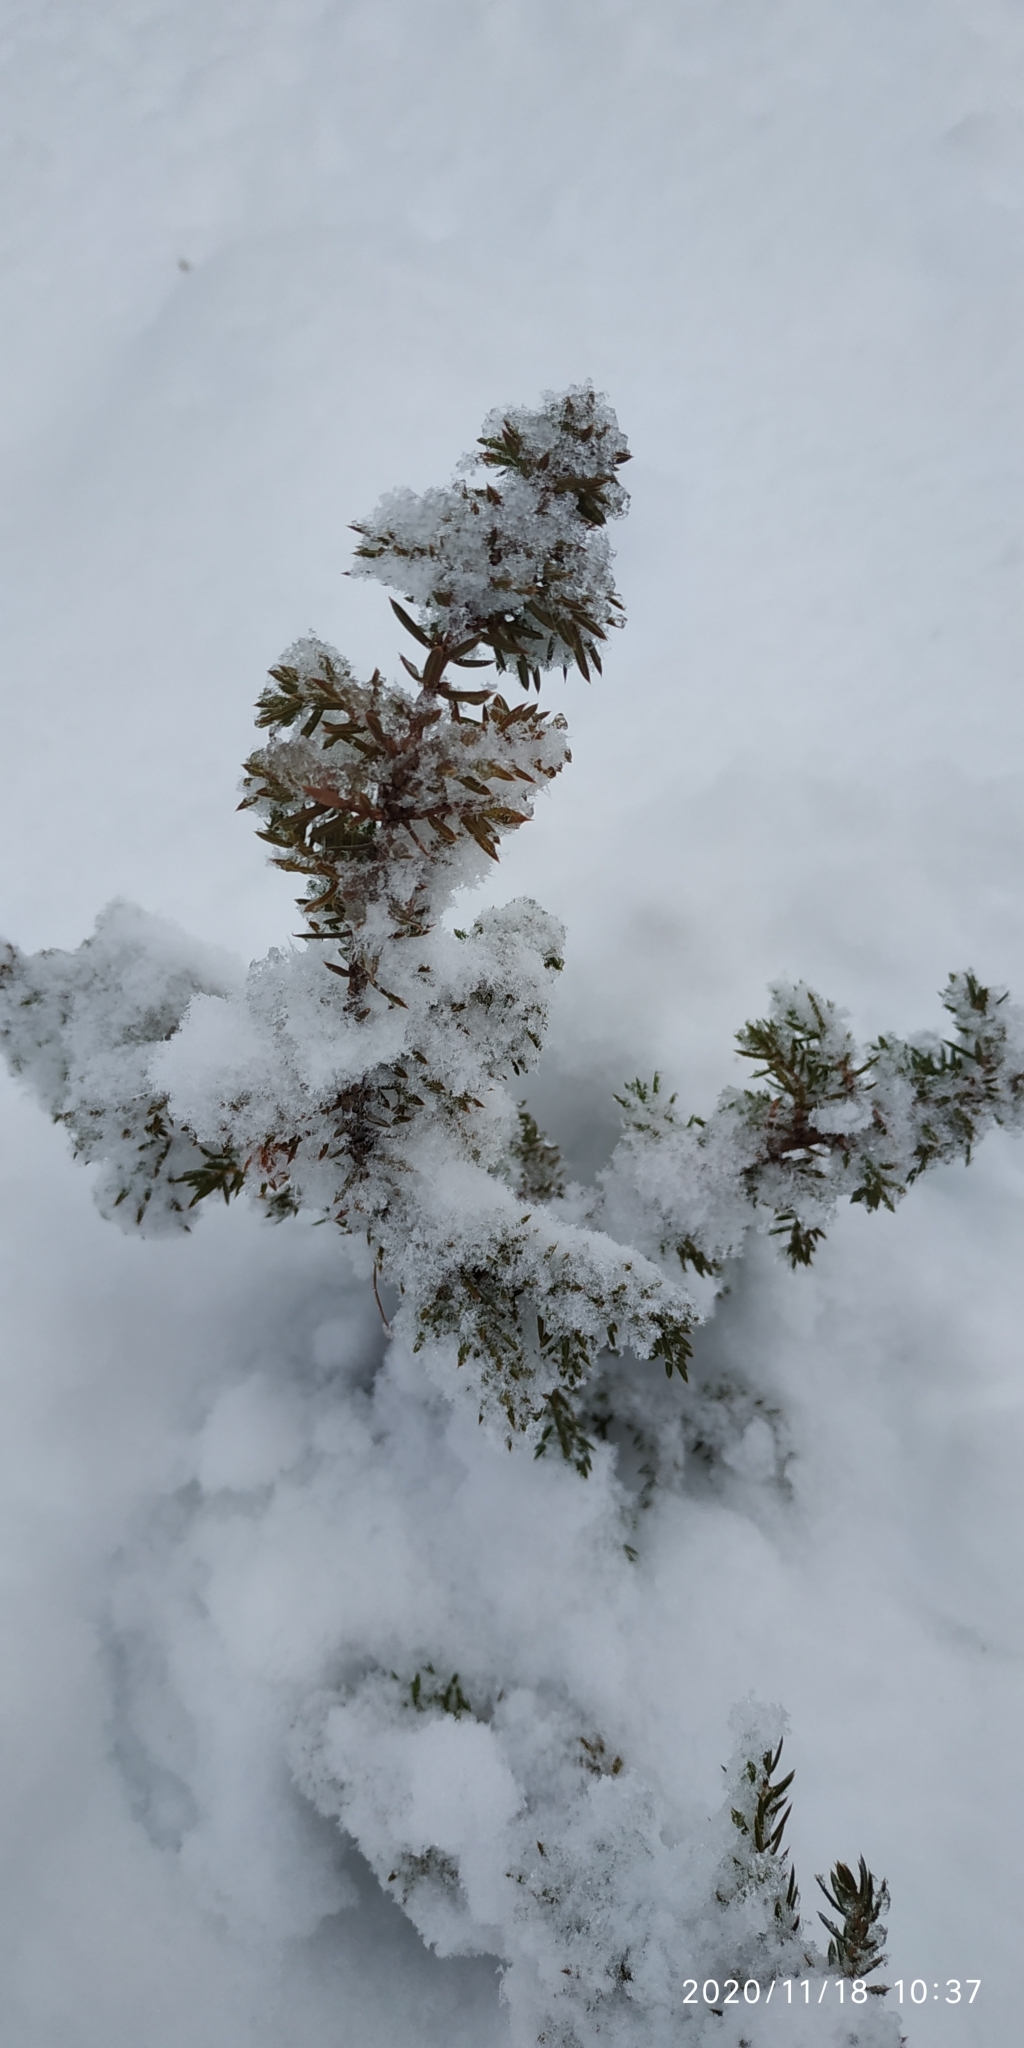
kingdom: Plantae
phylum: Tracheophyta
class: Pinopsida
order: Pinales
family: Cupressaceae
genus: Juniperus
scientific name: Juniperus communis
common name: Common juniper
